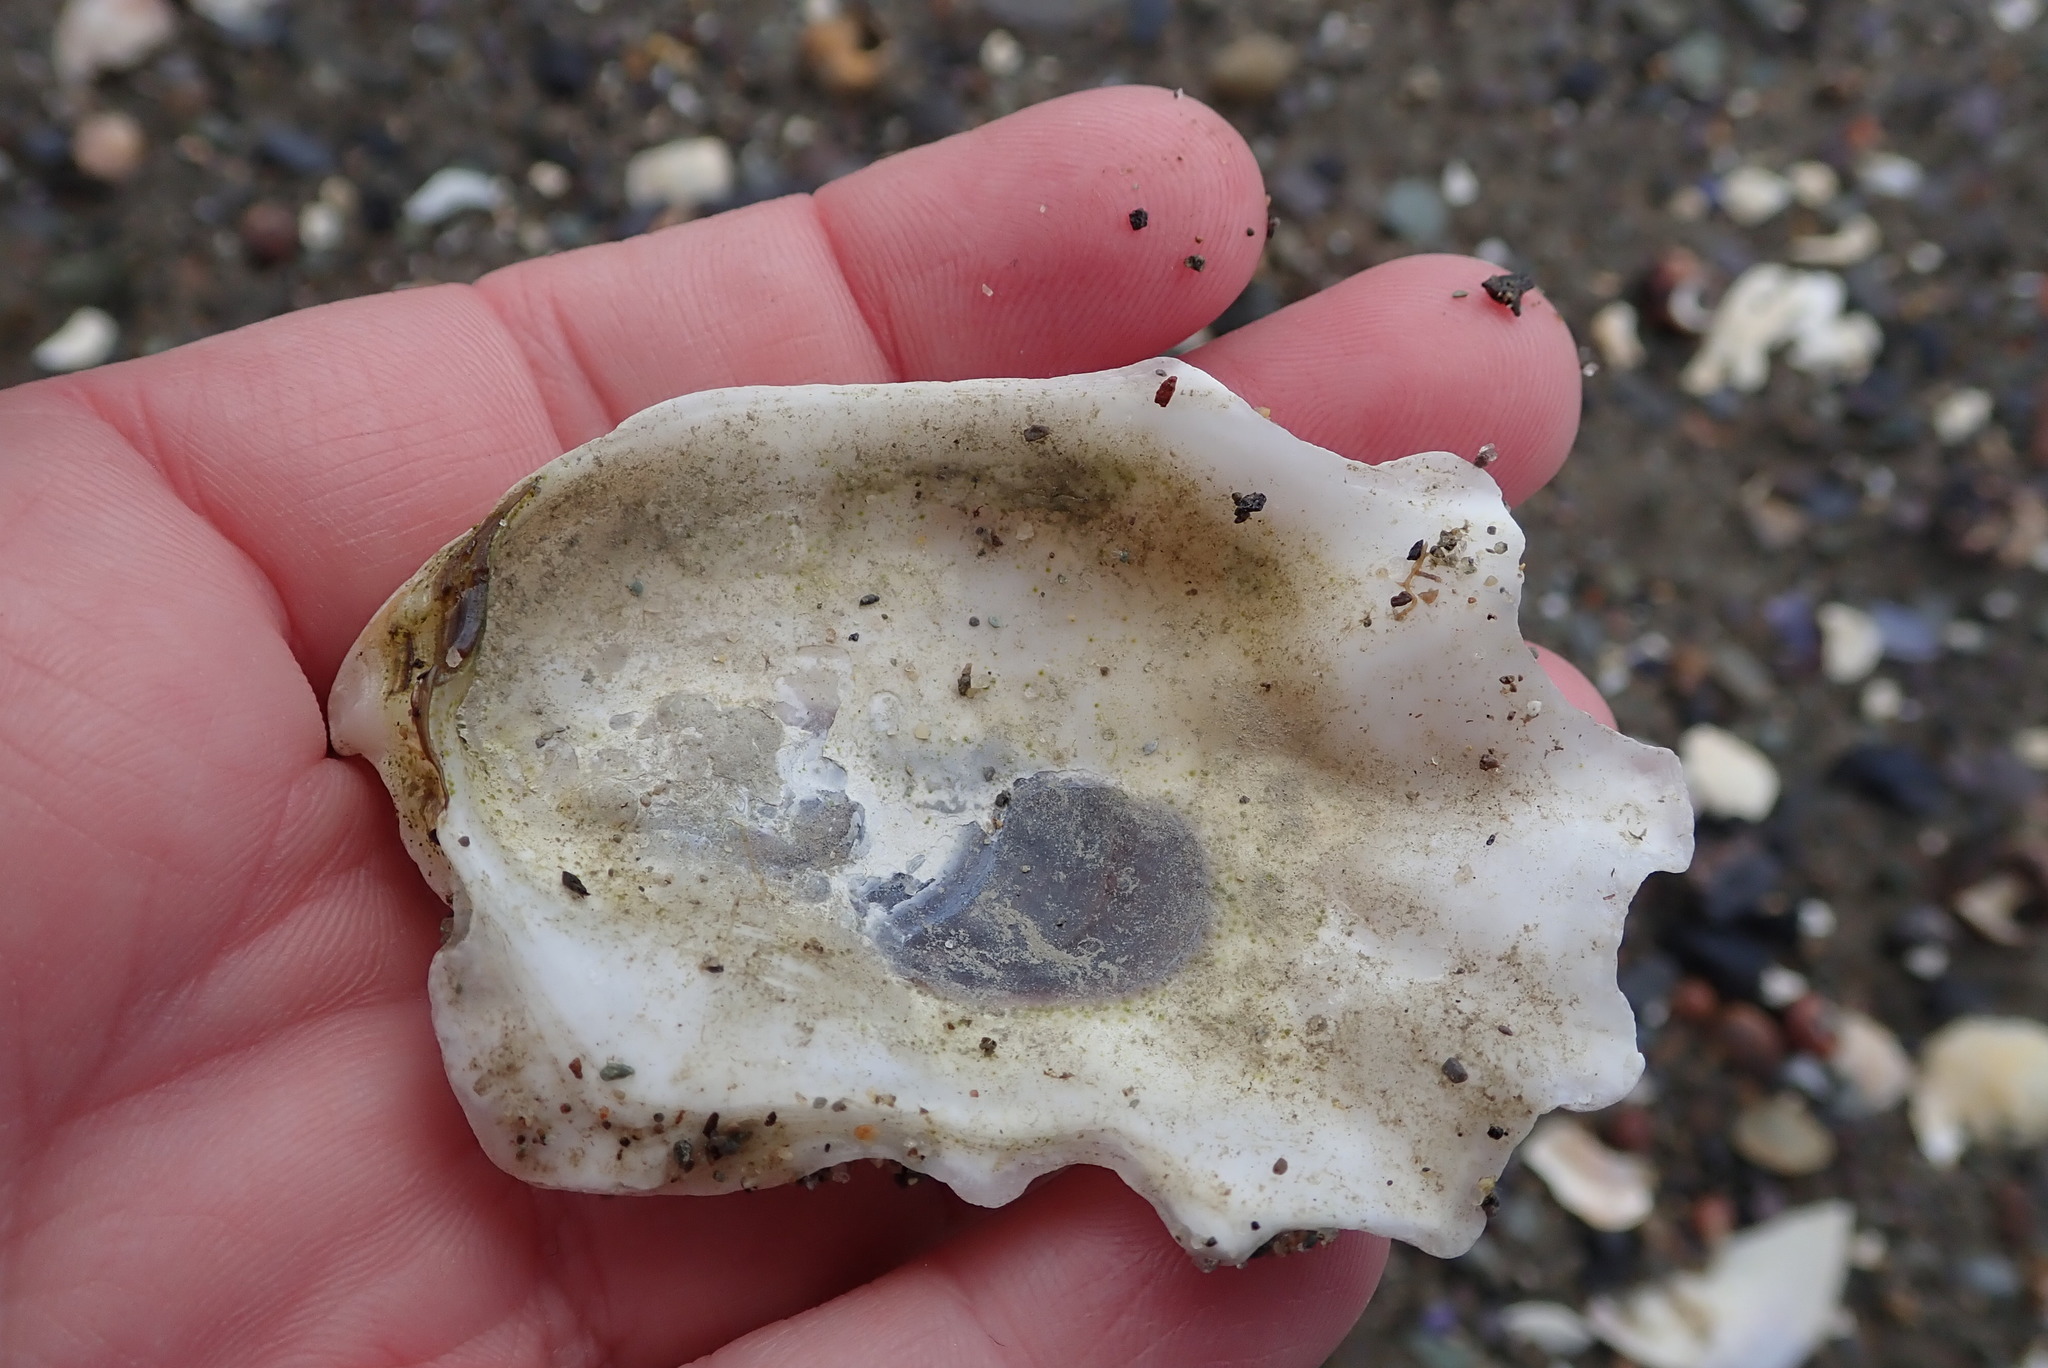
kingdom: Animalia
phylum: Mollusca
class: Bivalvia
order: Ostreida
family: Ostreidae
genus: Crassostrea
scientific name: Crassostrea virginica
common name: American oyster
